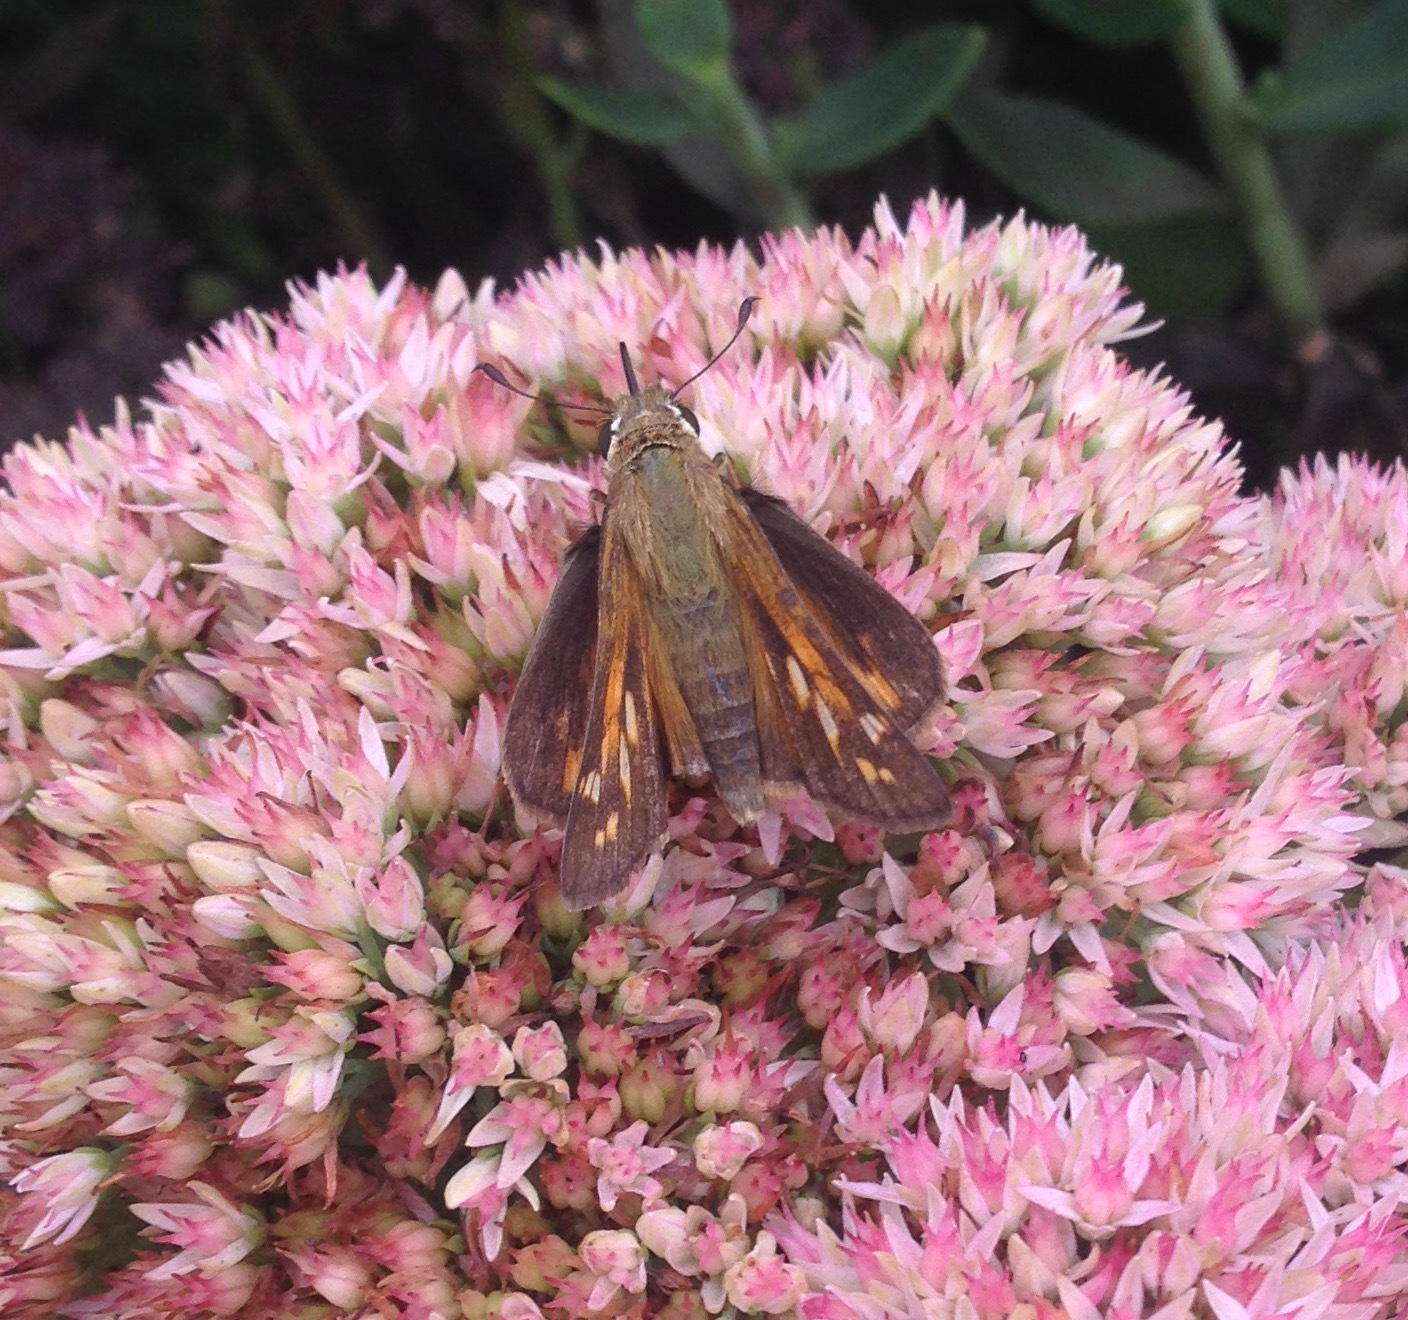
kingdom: Animalia
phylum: Arthropoda
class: Insecta
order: Lepidoptera
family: Hesperiidae
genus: Atalopedes
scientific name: Atalopedes
